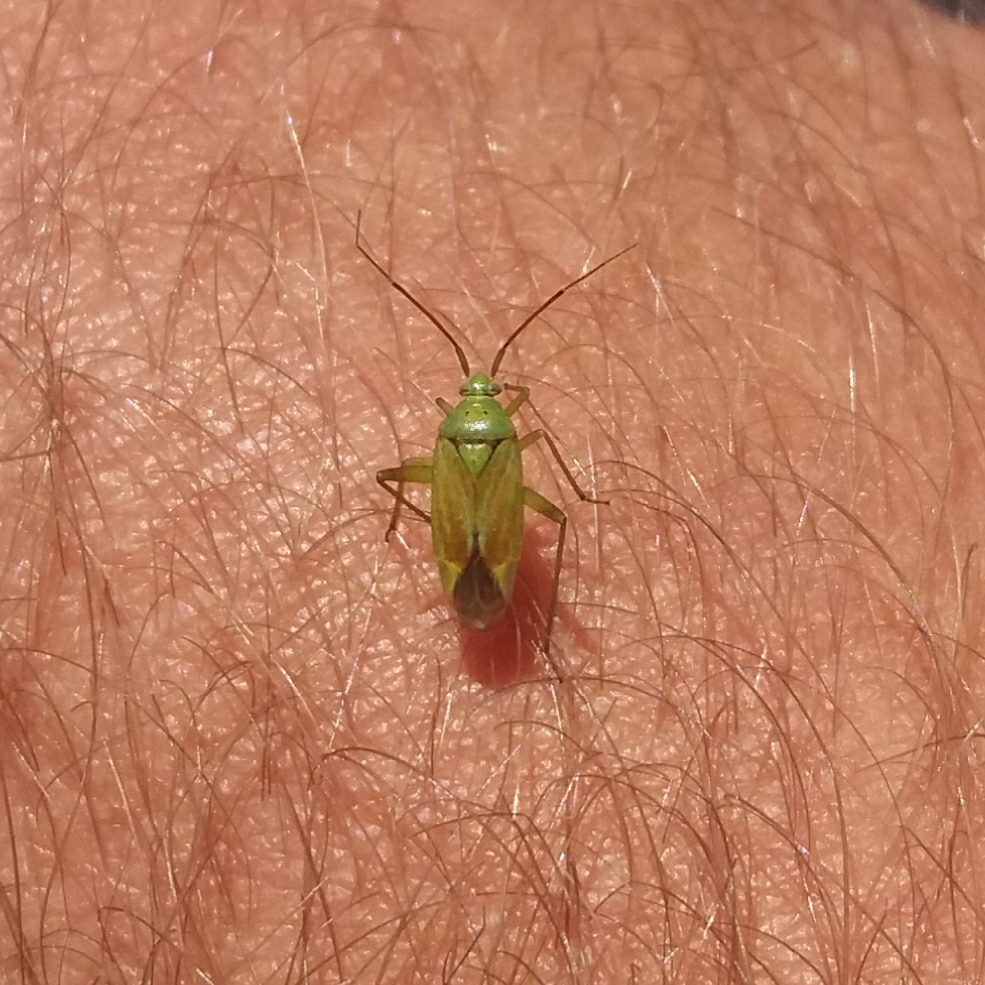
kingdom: Animalia
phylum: Arthropoda
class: Insecta
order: Hemiptera
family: Miridae
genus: Closterotomus
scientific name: Closterotomus norvegicus
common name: Plant bug
